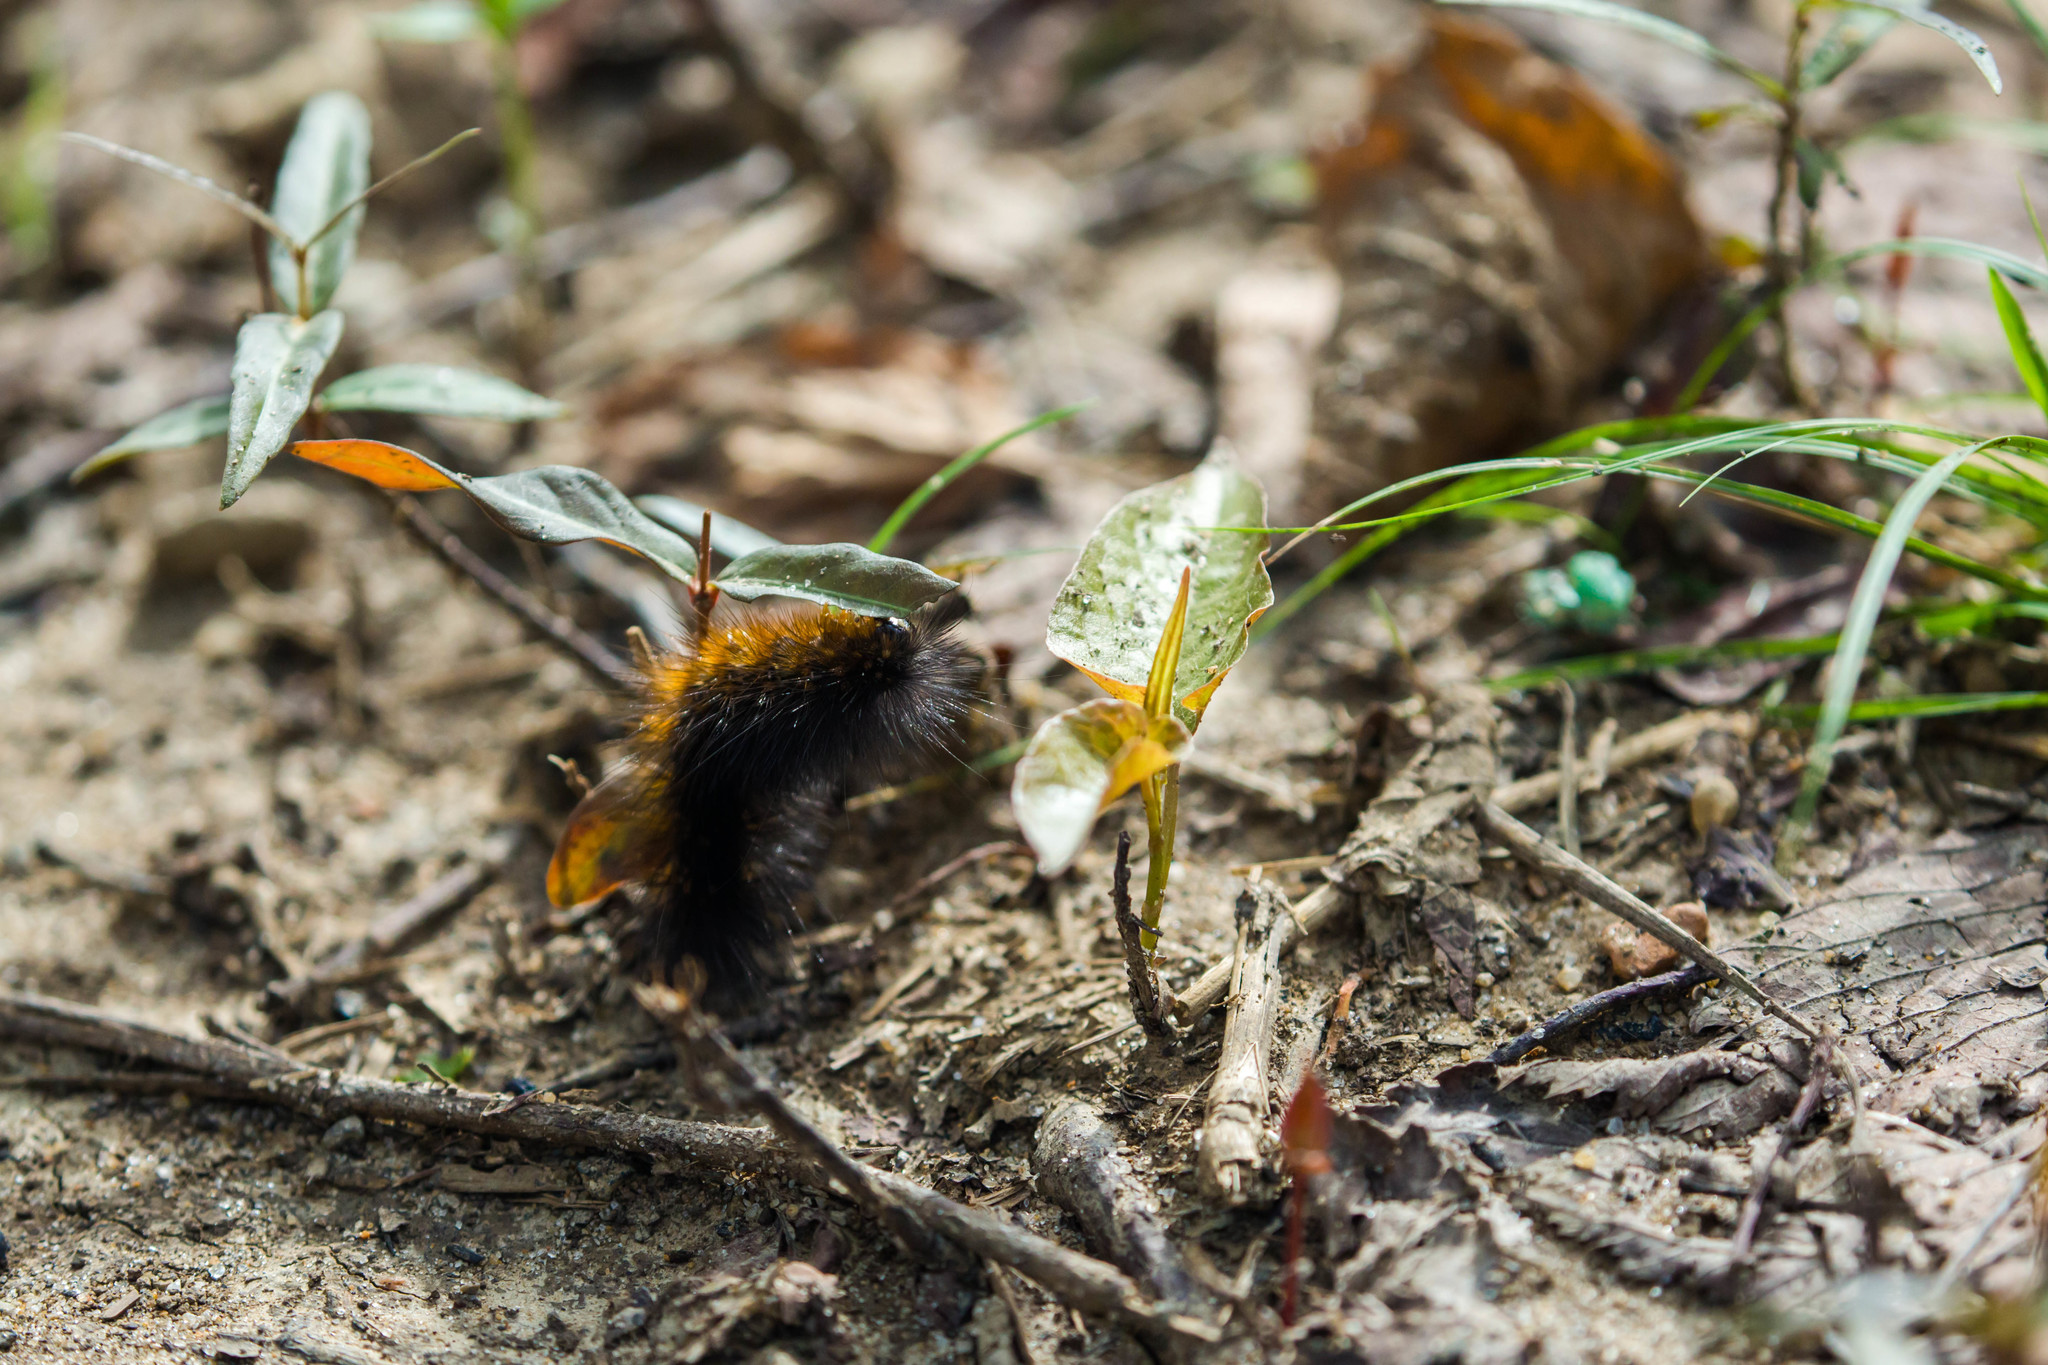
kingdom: Animalia
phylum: Arthropoda
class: Insecta
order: Lepidoptera
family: Erebidae
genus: Estigmene
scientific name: Estigmene acrea
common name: Salt marsh moth
